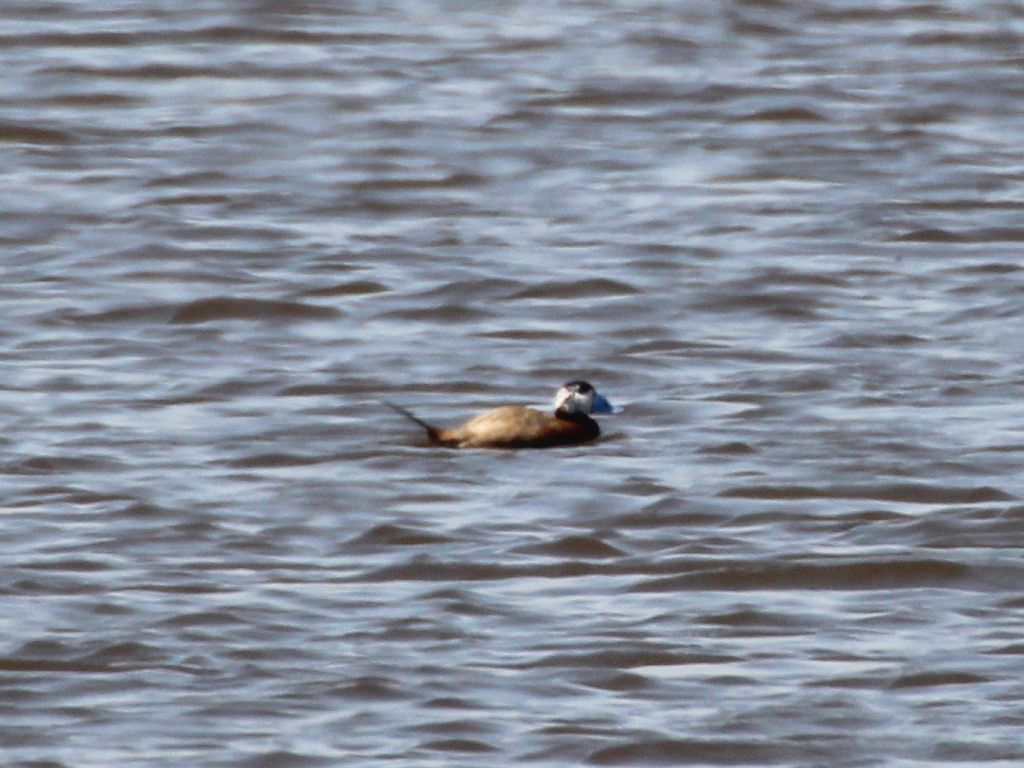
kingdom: Animalia
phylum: Chordata
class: Aves
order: Anseriformes
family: Anatidae
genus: Oxyura
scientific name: Oxyura leucocephala
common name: White-headed duck
